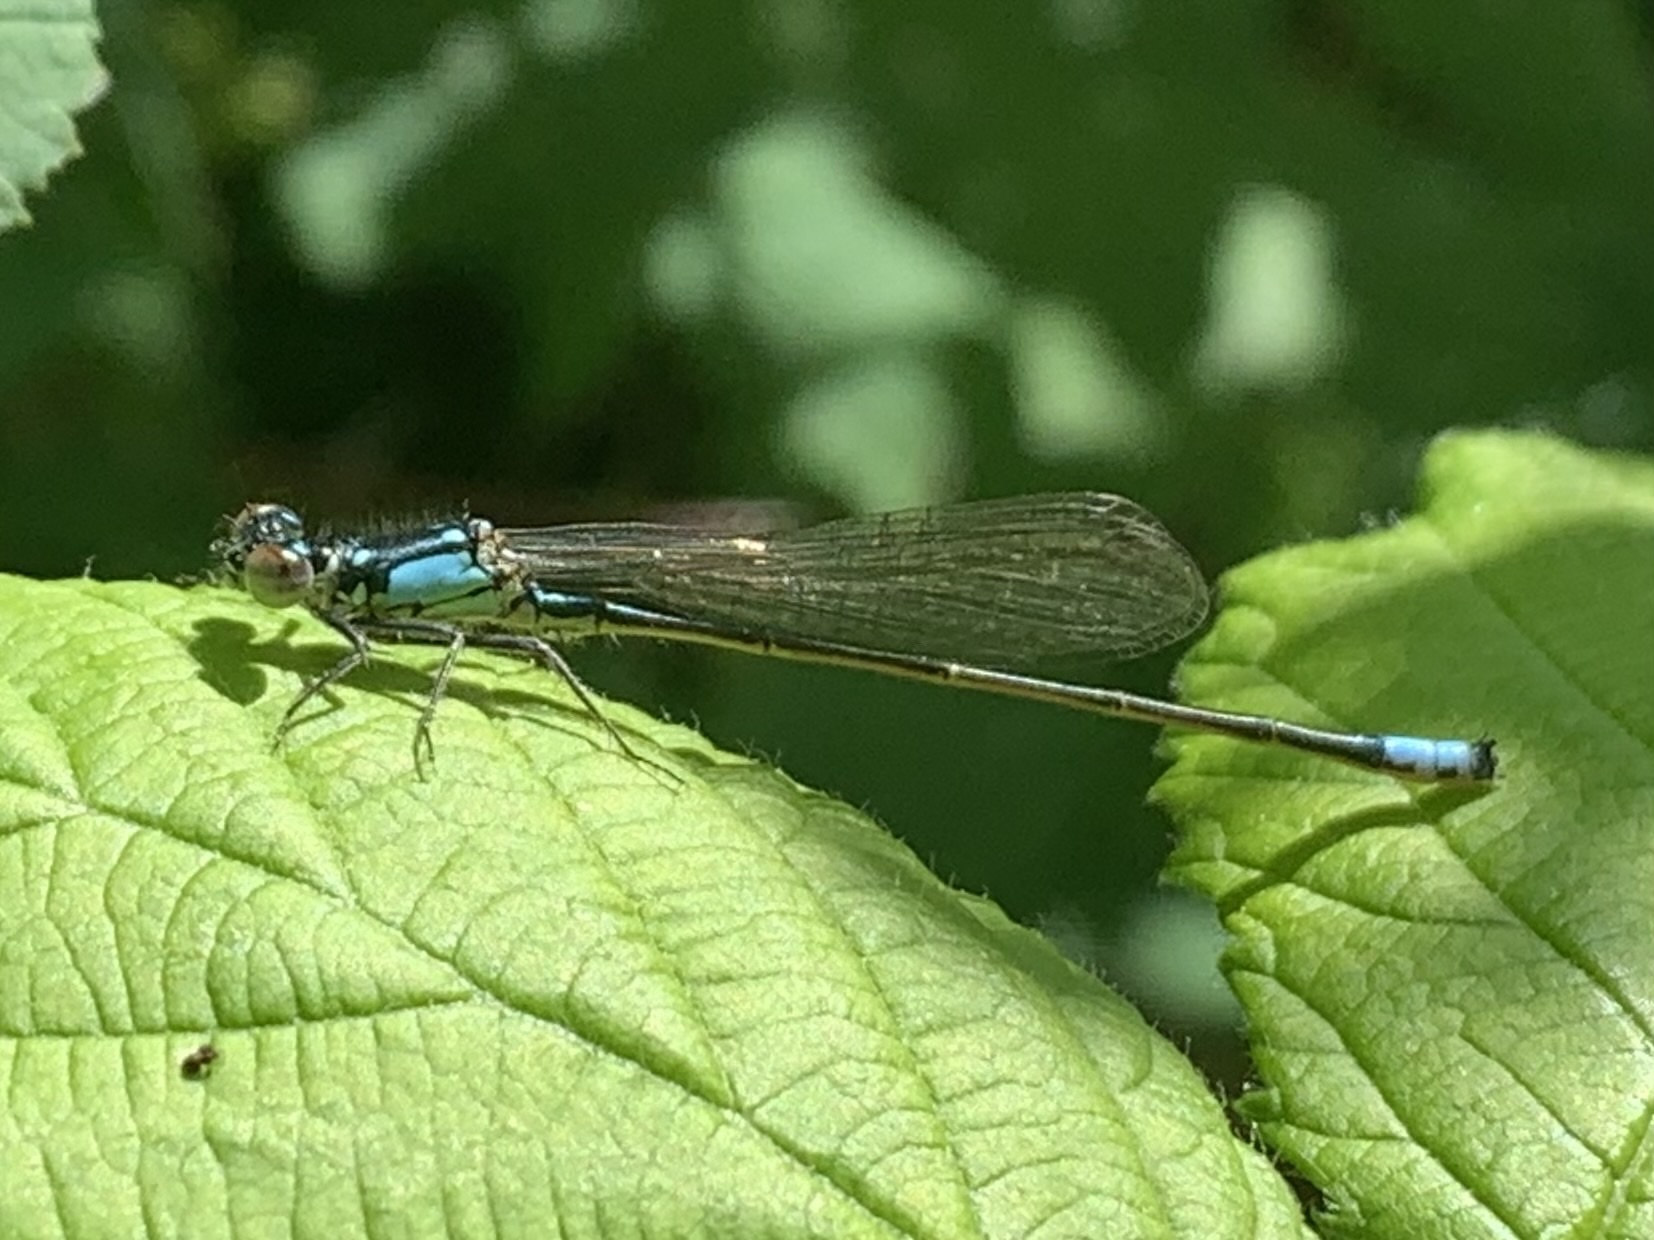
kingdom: Animalia
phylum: Arthropoda
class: Insecta
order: Odonata
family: Coenagrionidae
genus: Ischnura
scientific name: Ischnura cervula
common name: Pacific forktail
